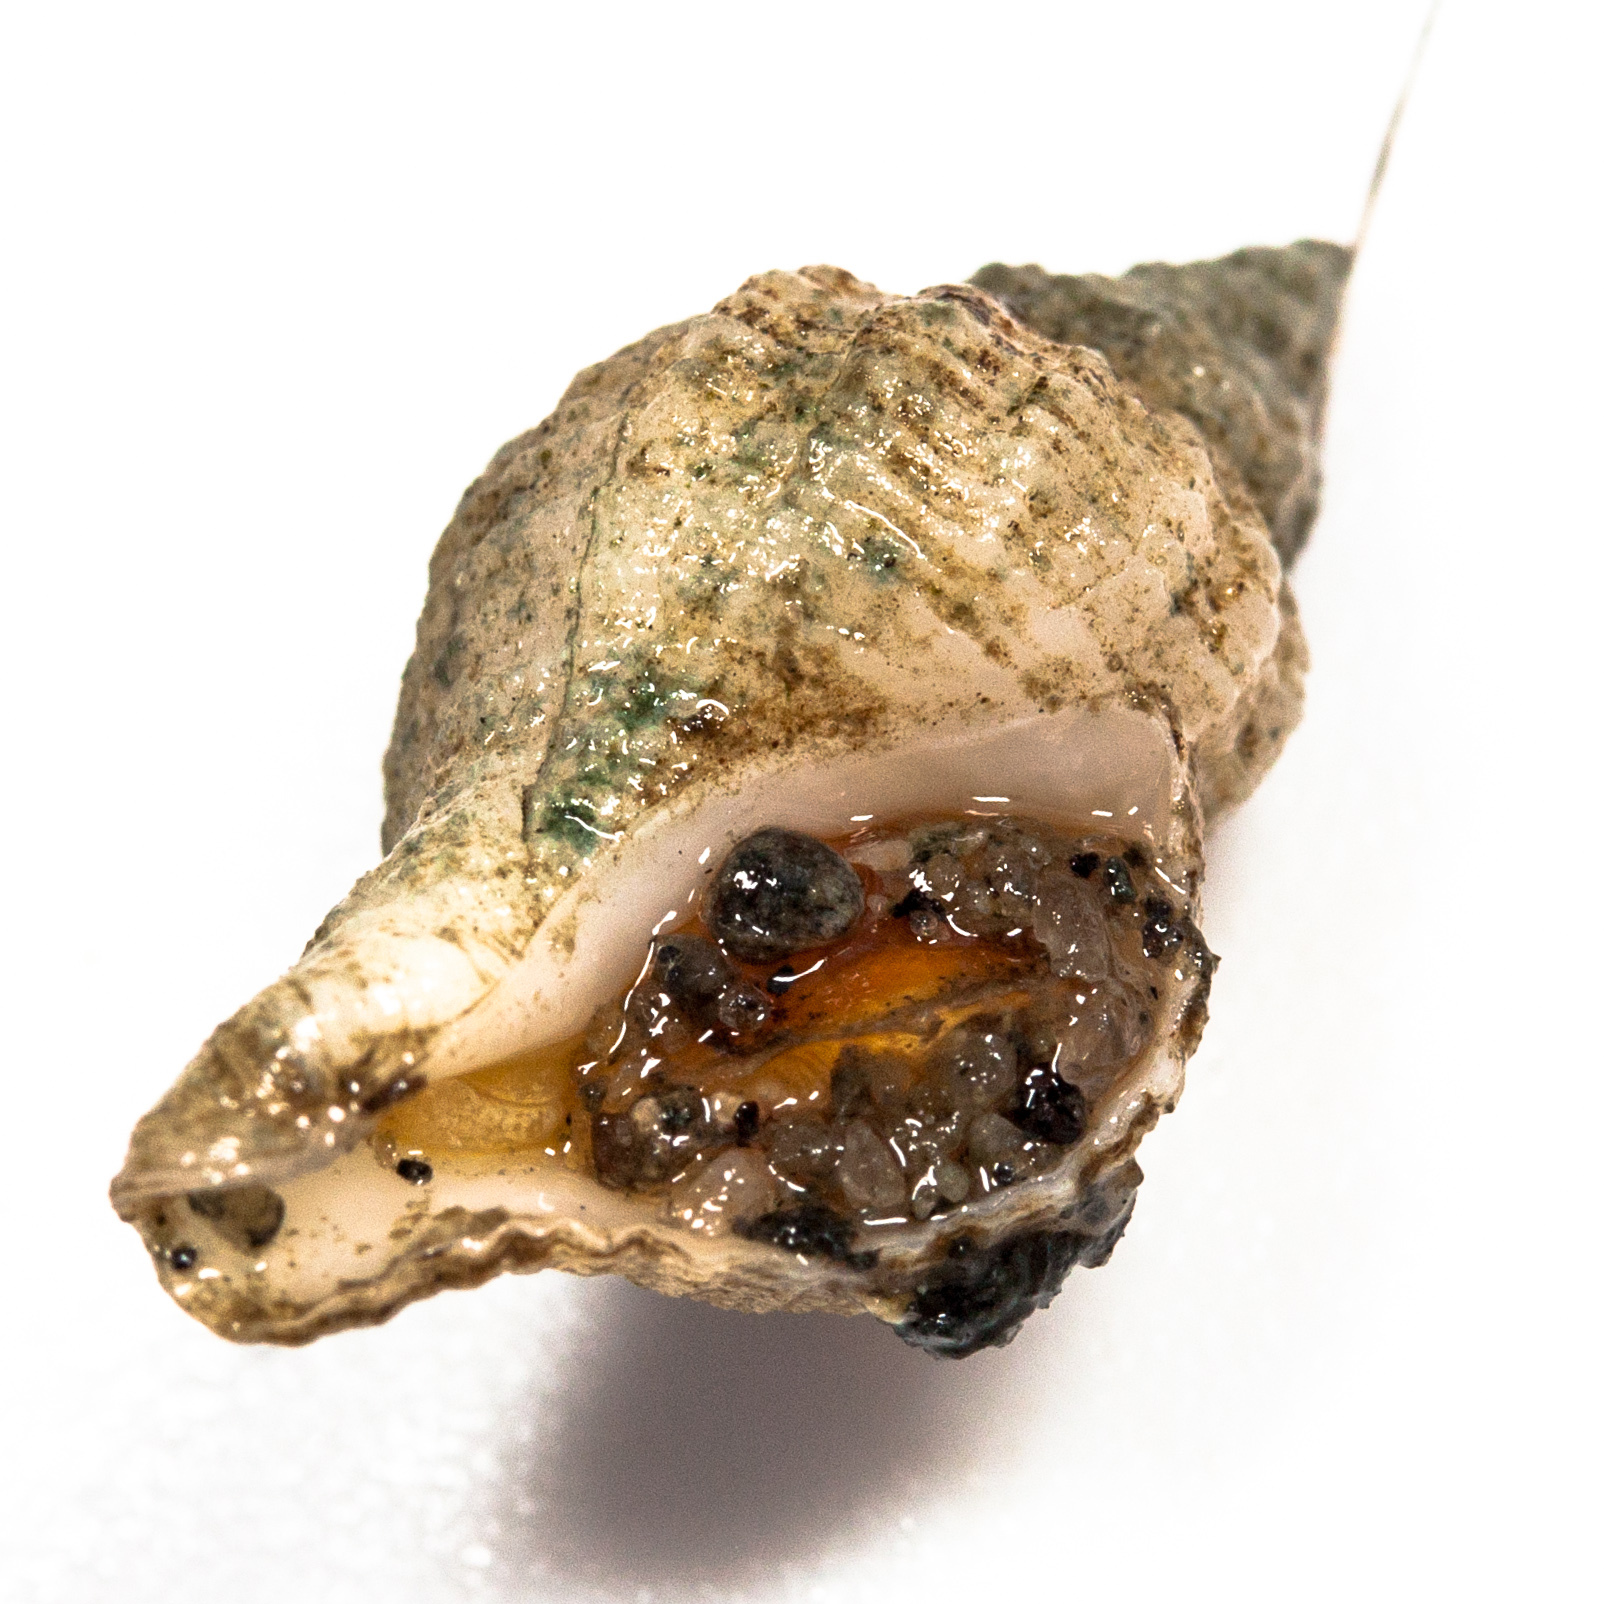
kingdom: Animalia
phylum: Mollusca
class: Gastropoda
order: Neogastropoda
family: Muricidae
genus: Urosalpinx
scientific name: Urosalpinx cinerea
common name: American sting winkle
